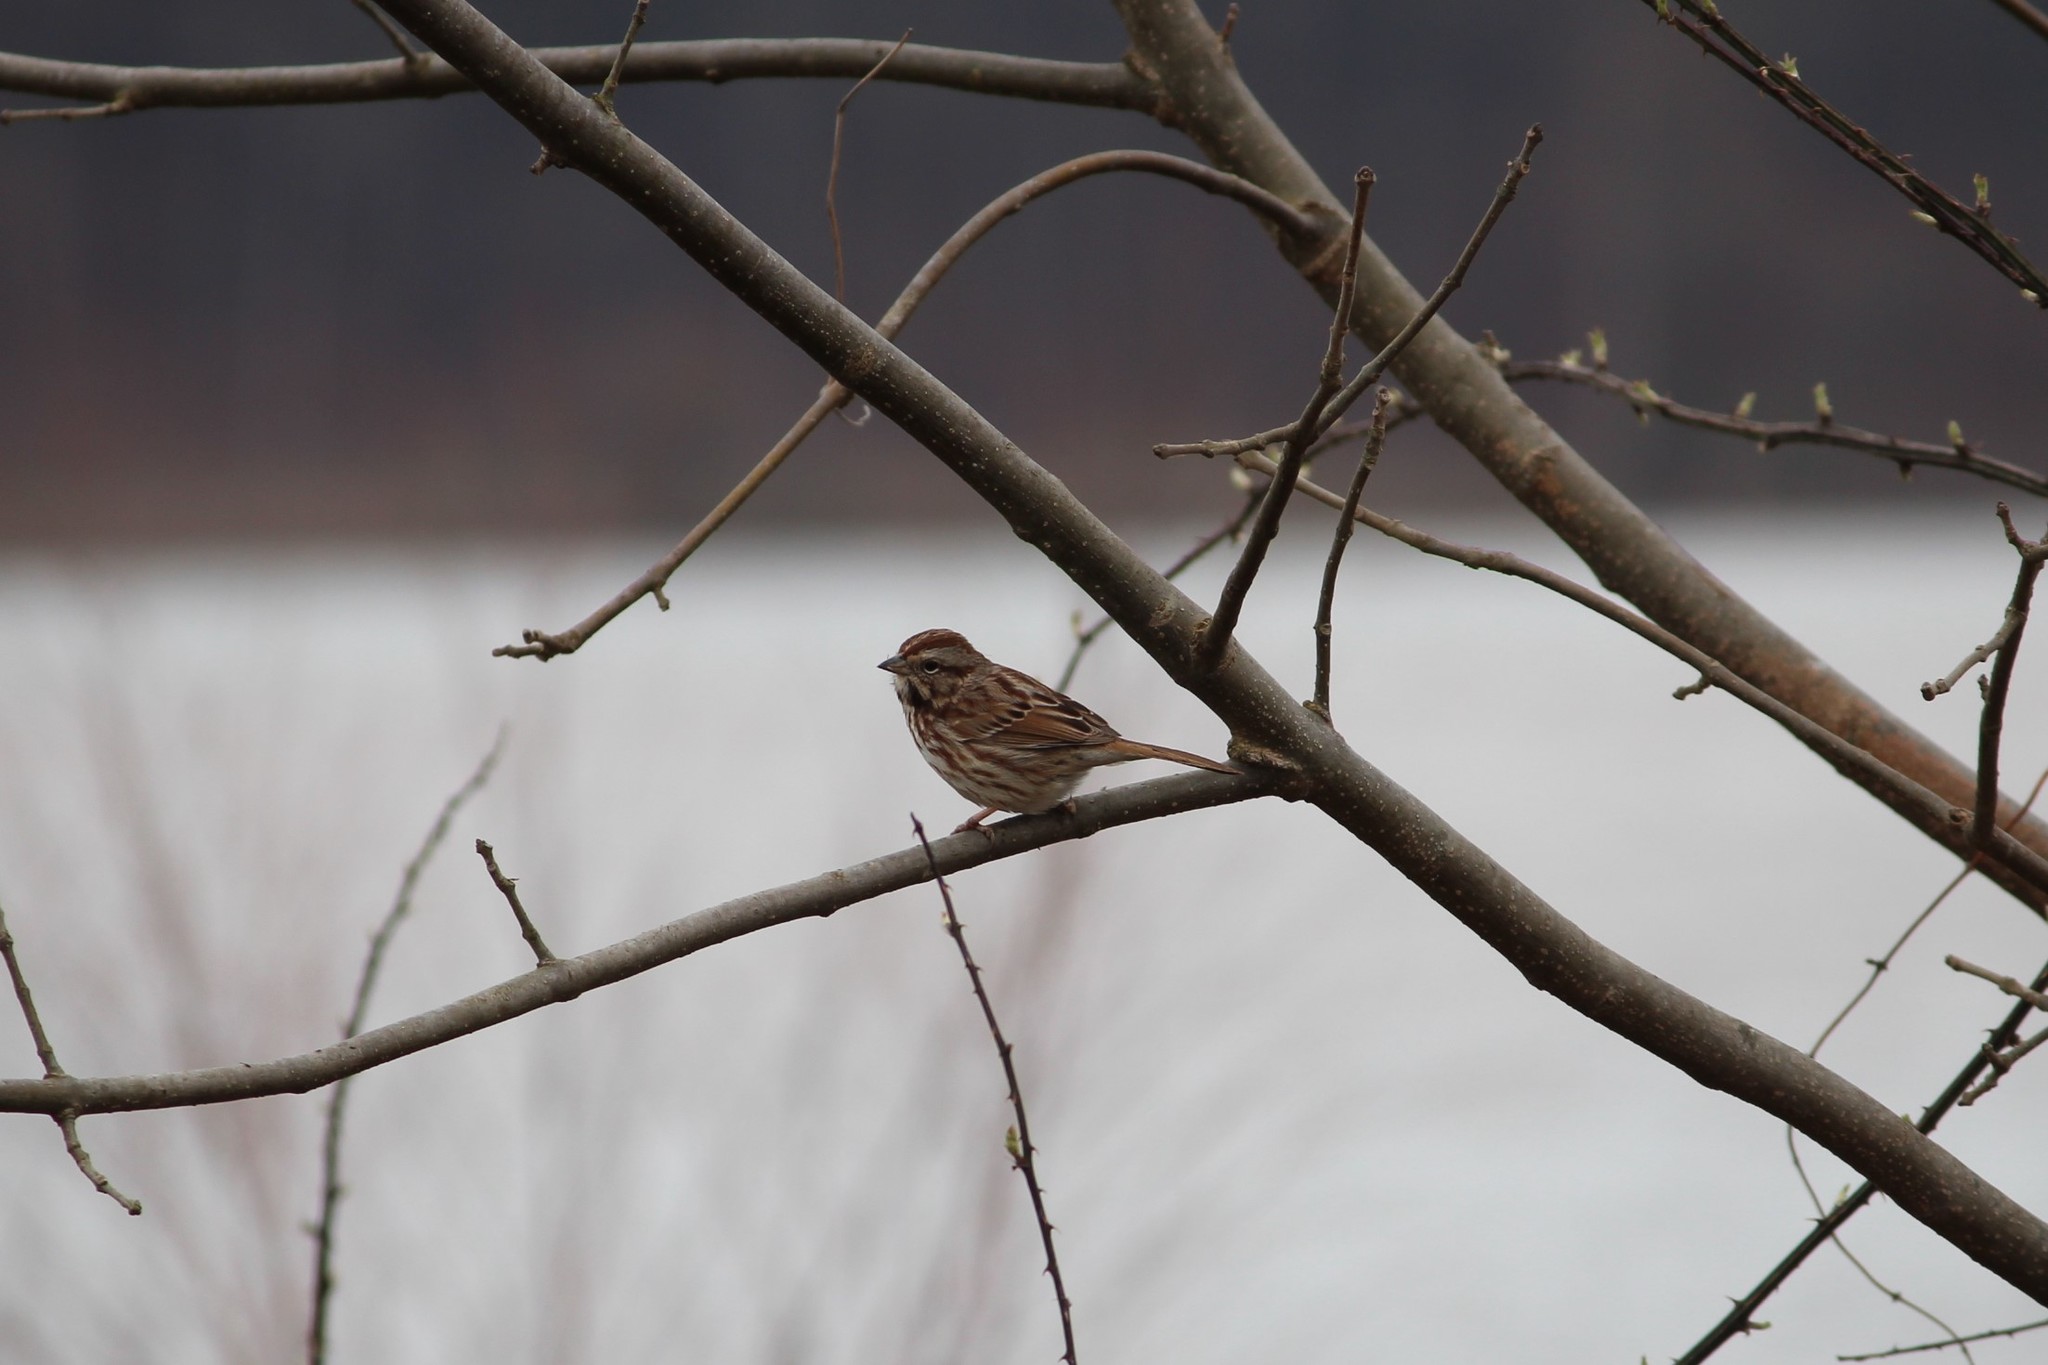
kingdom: Animalia
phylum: Chordata
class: Aves
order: Passeriformes
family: Passerellidae
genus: Melospiza
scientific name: Melospiza melodia
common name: Song sparrow
